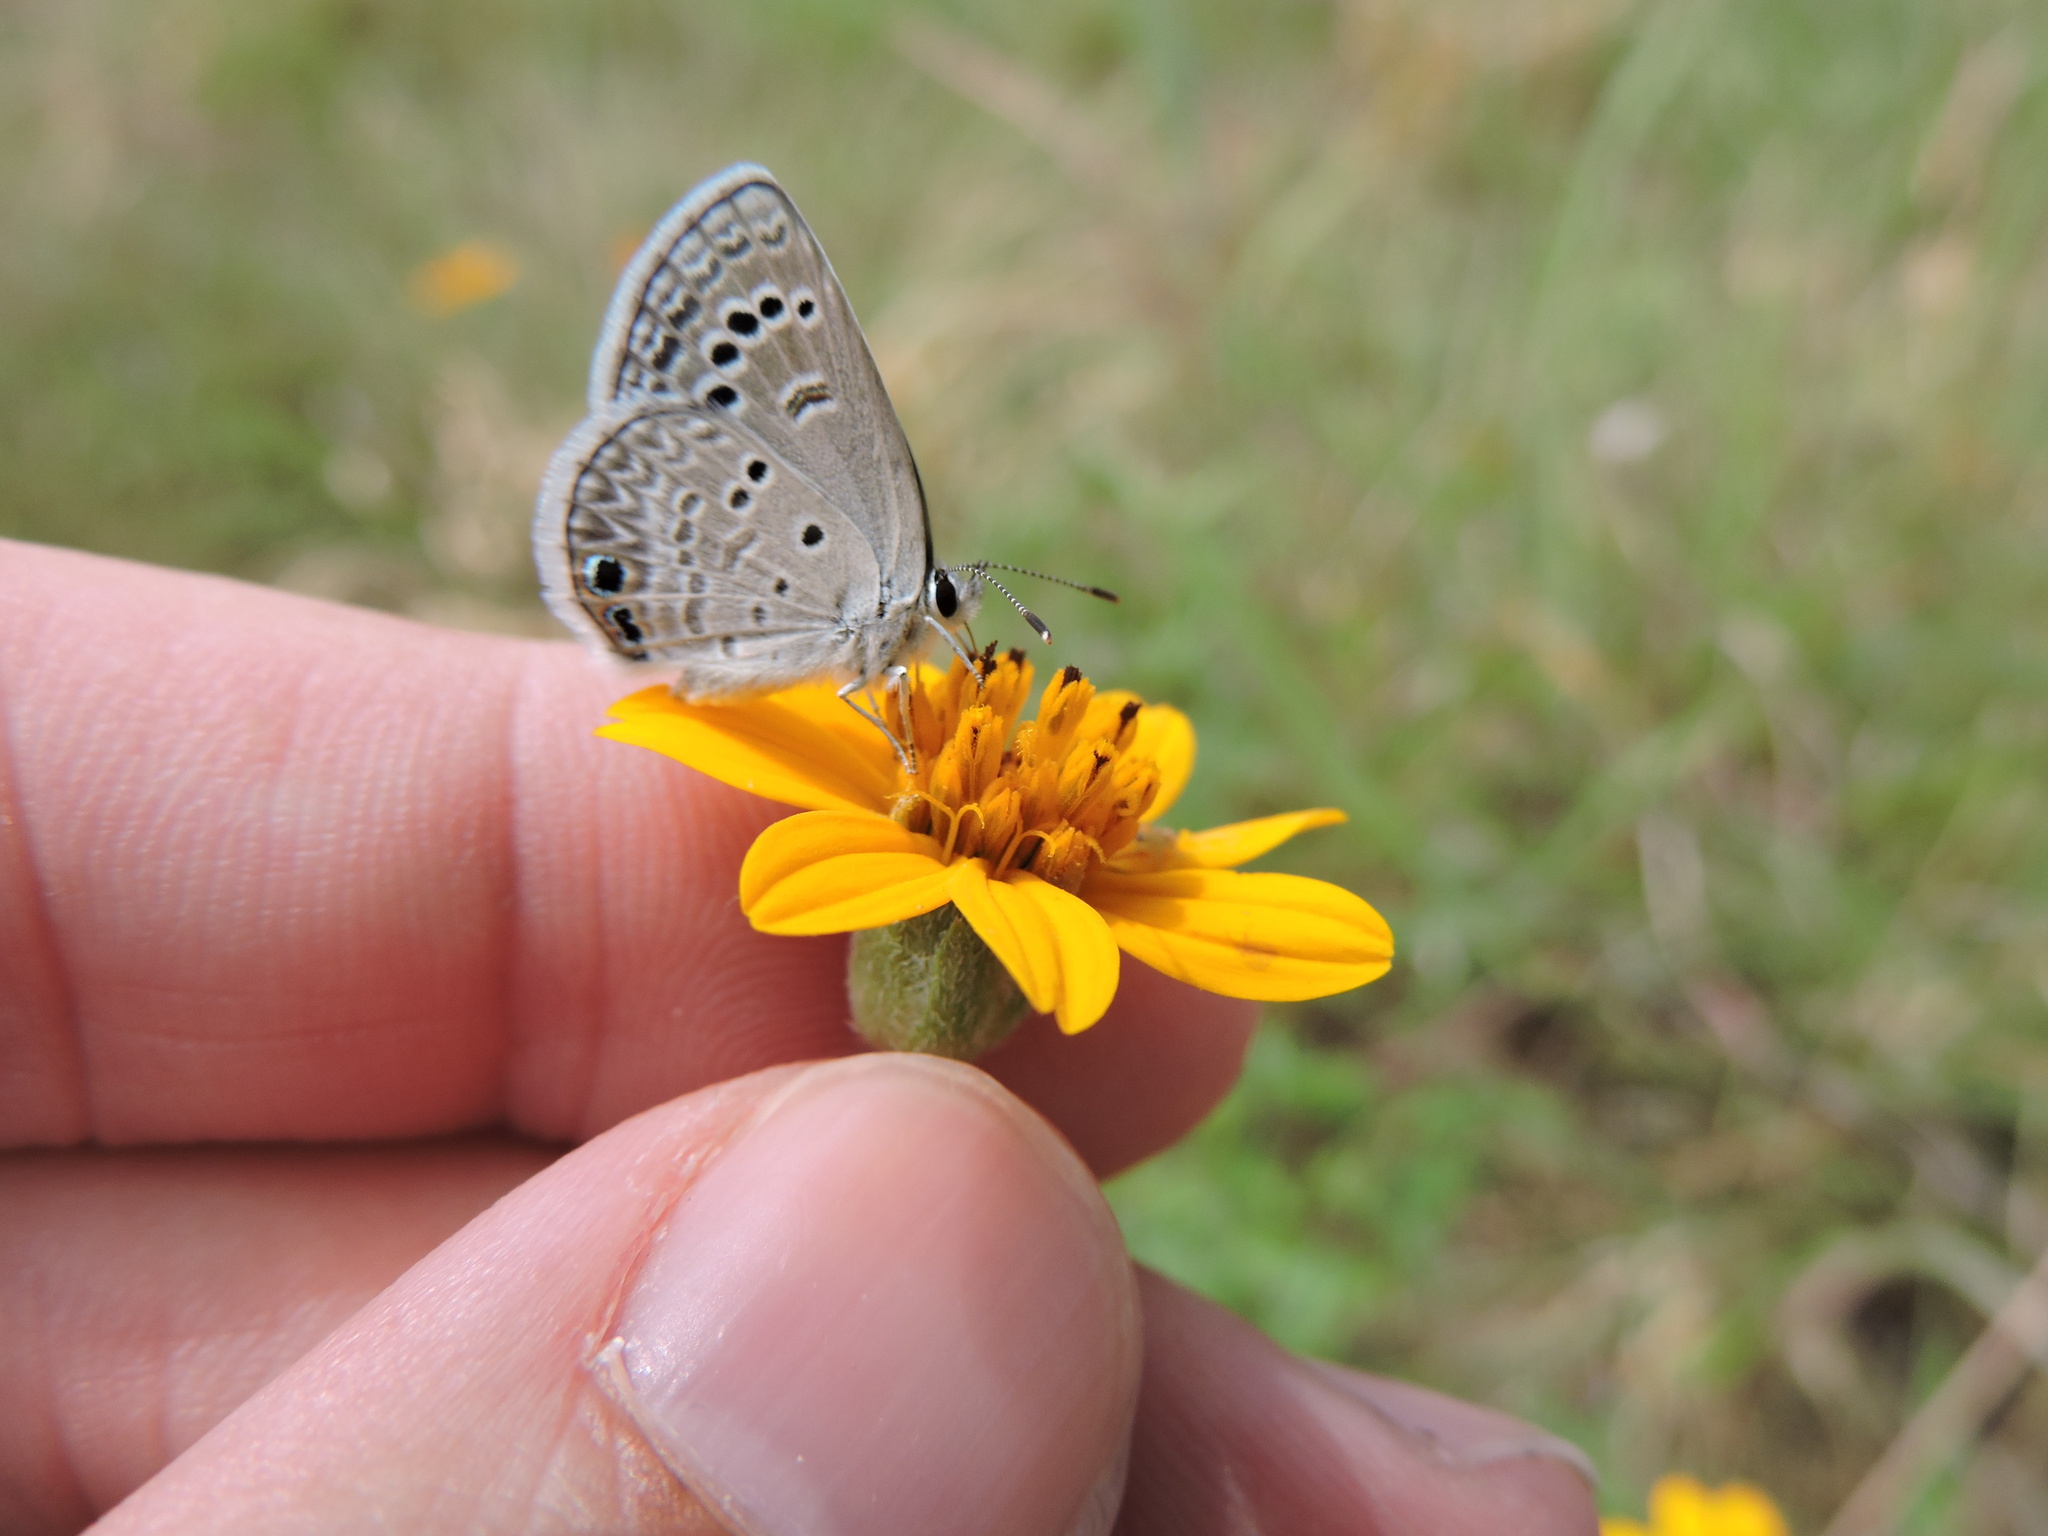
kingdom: Animalia
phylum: Arthropoda
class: Insecta
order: Lepidoptera
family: Lycaenidae
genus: Echinargus
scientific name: Echinargus isola
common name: Reakirt's blue
